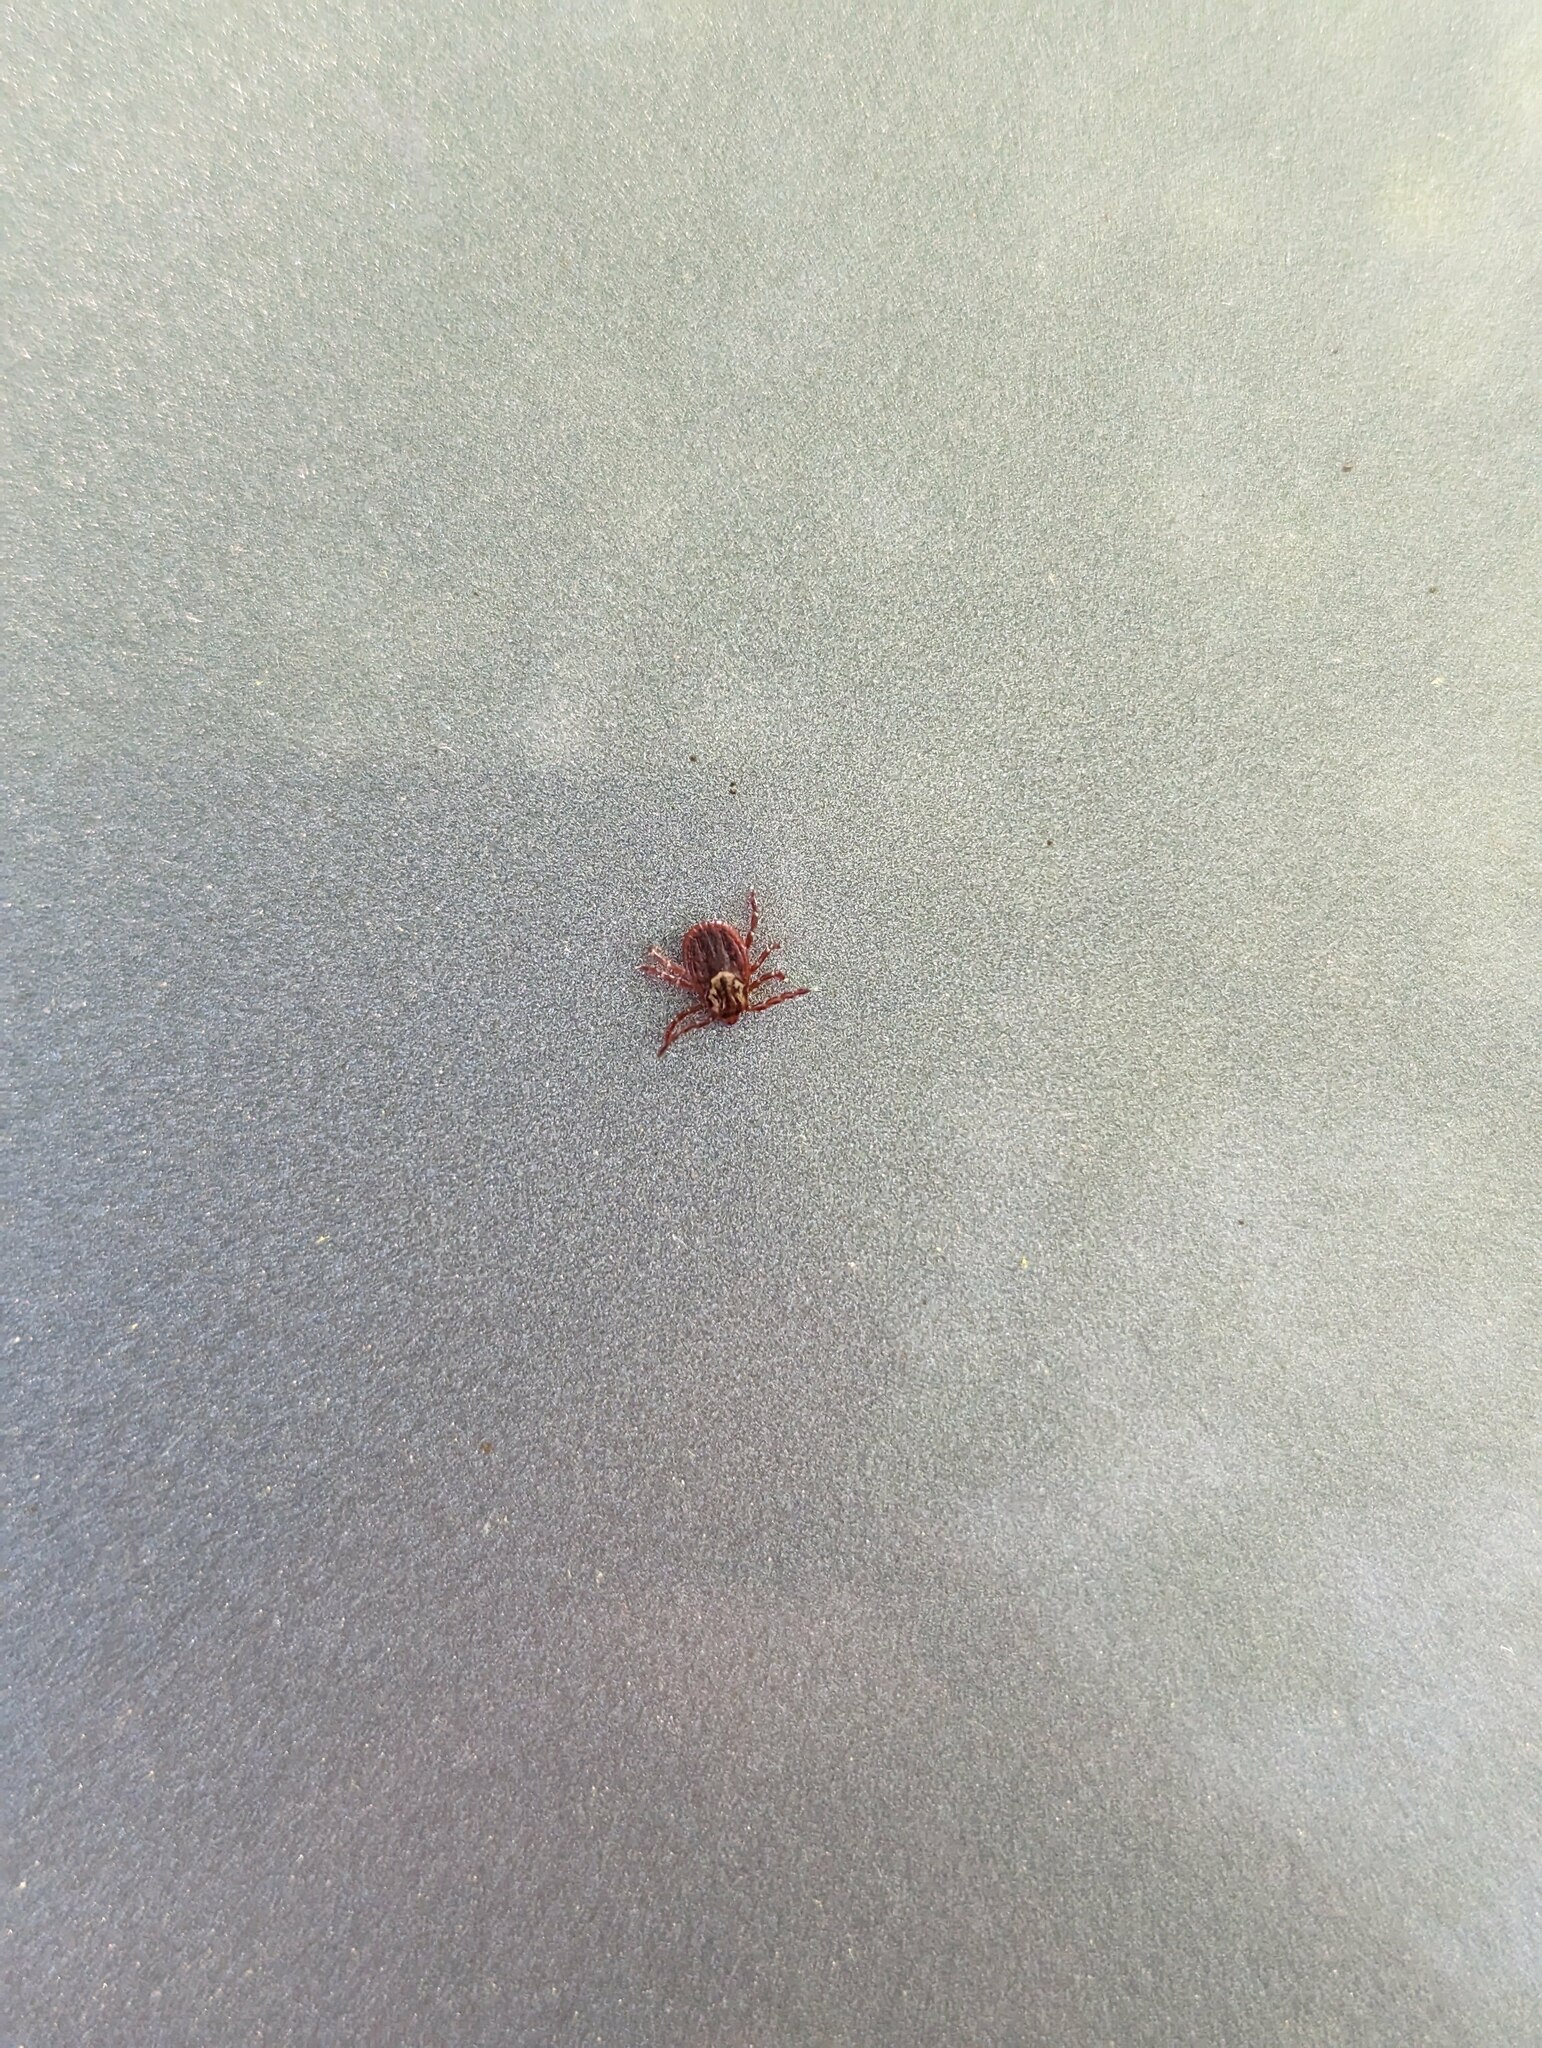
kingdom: Animalia
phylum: Arthropoda
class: Arachnida
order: Ixodida
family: Ixodidae
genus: Dermacentor
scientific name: Dermacentor variabilis
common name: American dog tick
